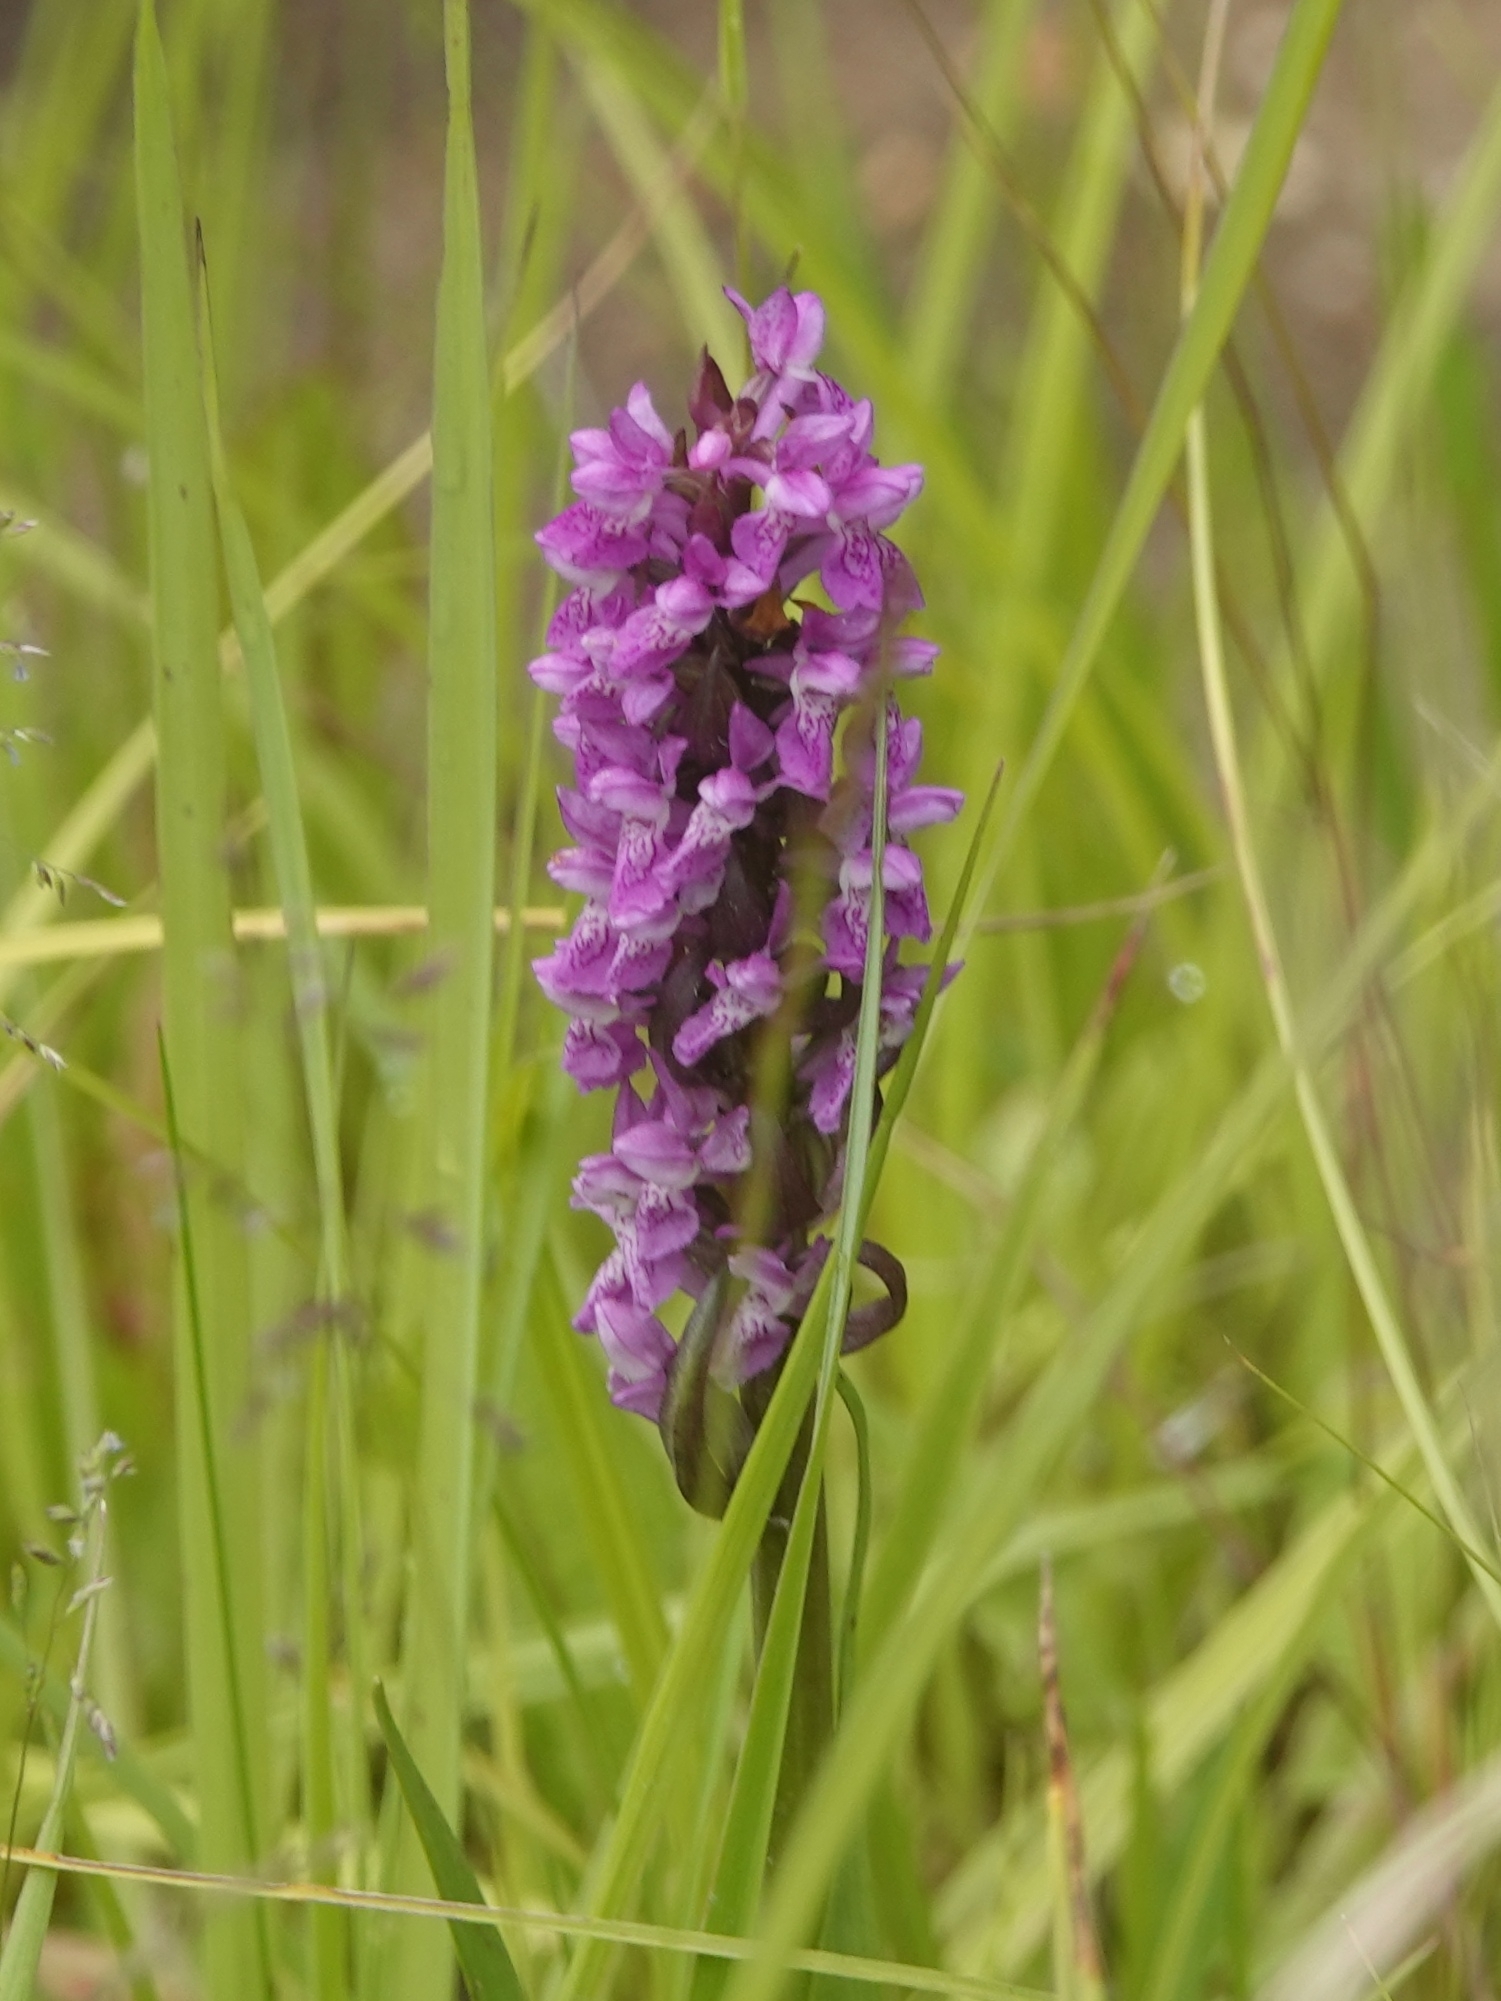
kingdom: Plantae
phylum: Tracheophyta
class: Liliopsida
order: Asparagales
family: Orchidaceae
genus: Dactylorhiza
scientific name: Dactylorhiza incarnata
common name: Early marsh-orchid
